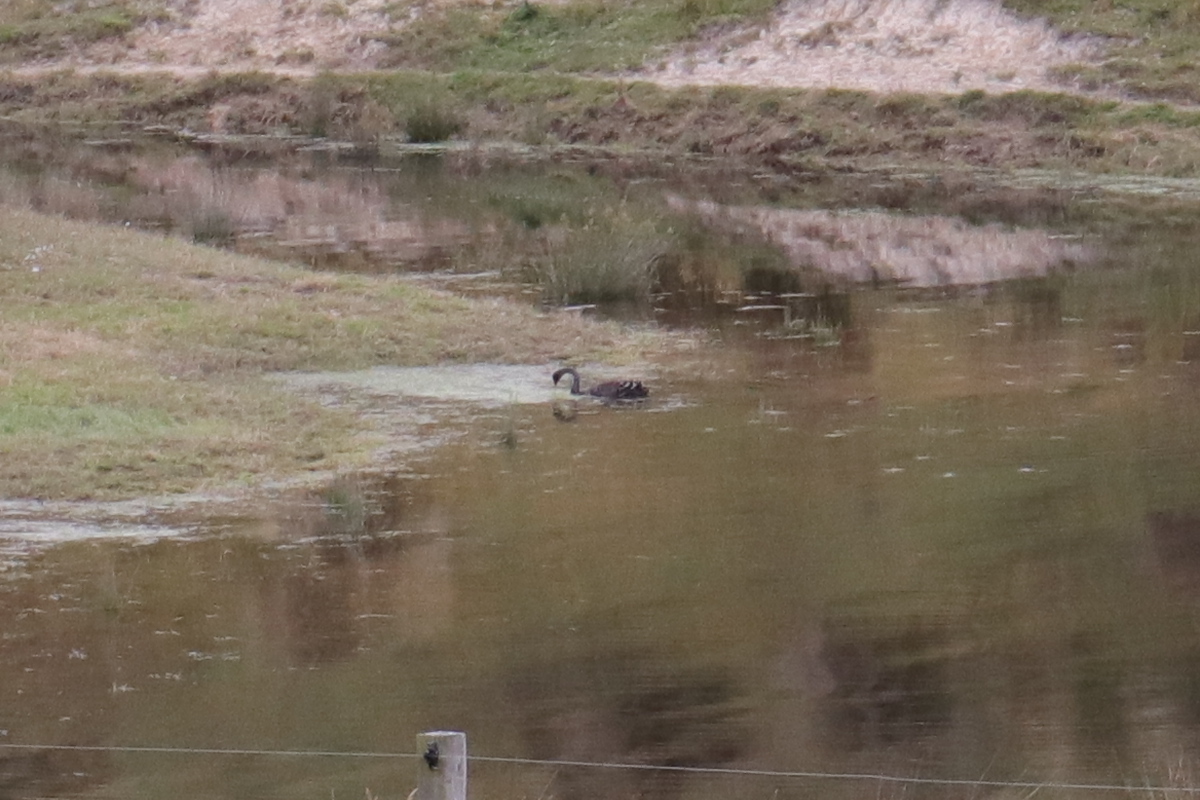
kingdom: Animalia
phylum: Chordata
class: Aves
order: Anseriformes
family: Anatidae
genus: Cygnus
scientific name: Cygnus atratus
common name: Black swan
